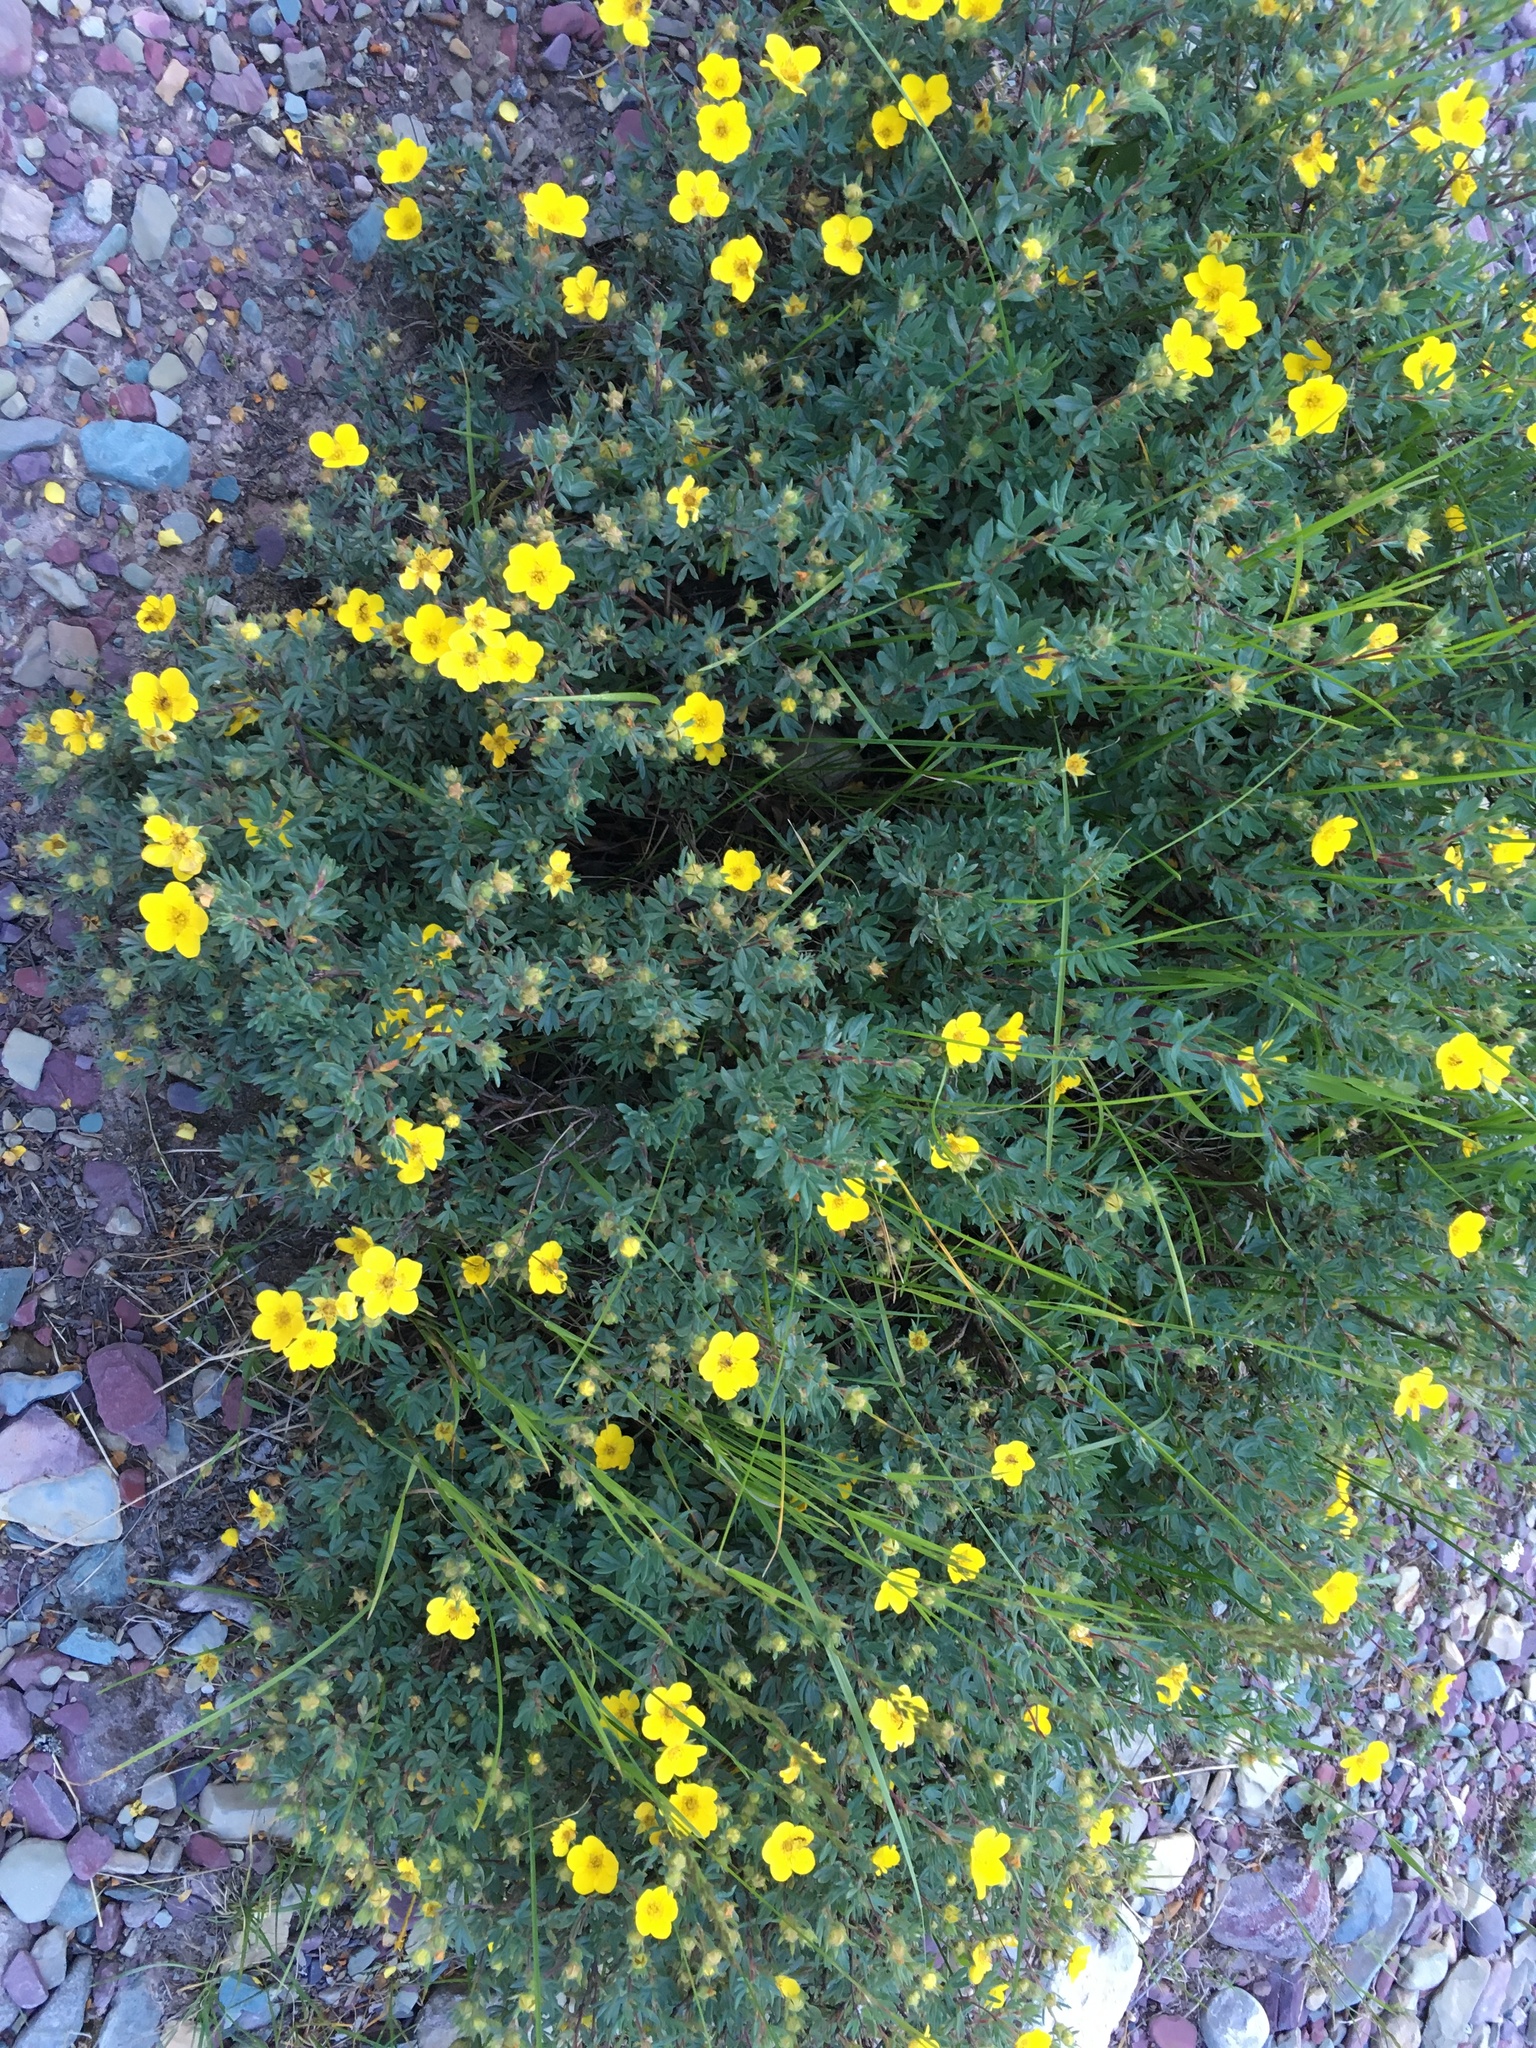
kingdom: Plantae
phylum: Tracheophyta
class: Magnoliopsida
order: Rosales
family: Rosaceae
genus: Dasiphora
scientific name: Dasiphora fruticosa
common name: Shrubby cinquefoil
